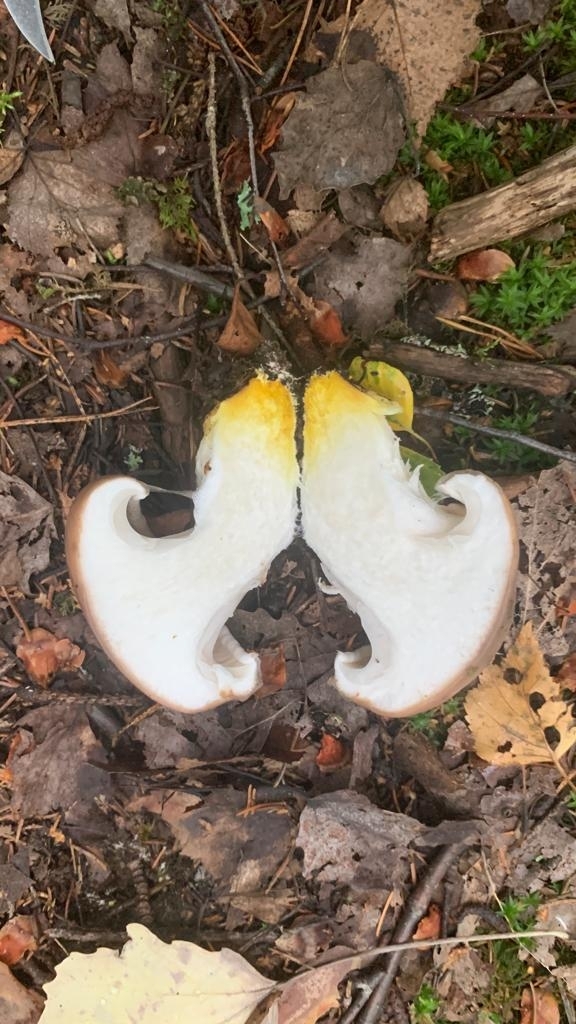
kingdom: Fungi
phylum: Basidiomycota
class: Agaricomycetes
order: Boletales
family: Gomphidiaceae
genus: Gomphidius
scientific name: Gomphidius glutinosus
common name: Slimy spike
